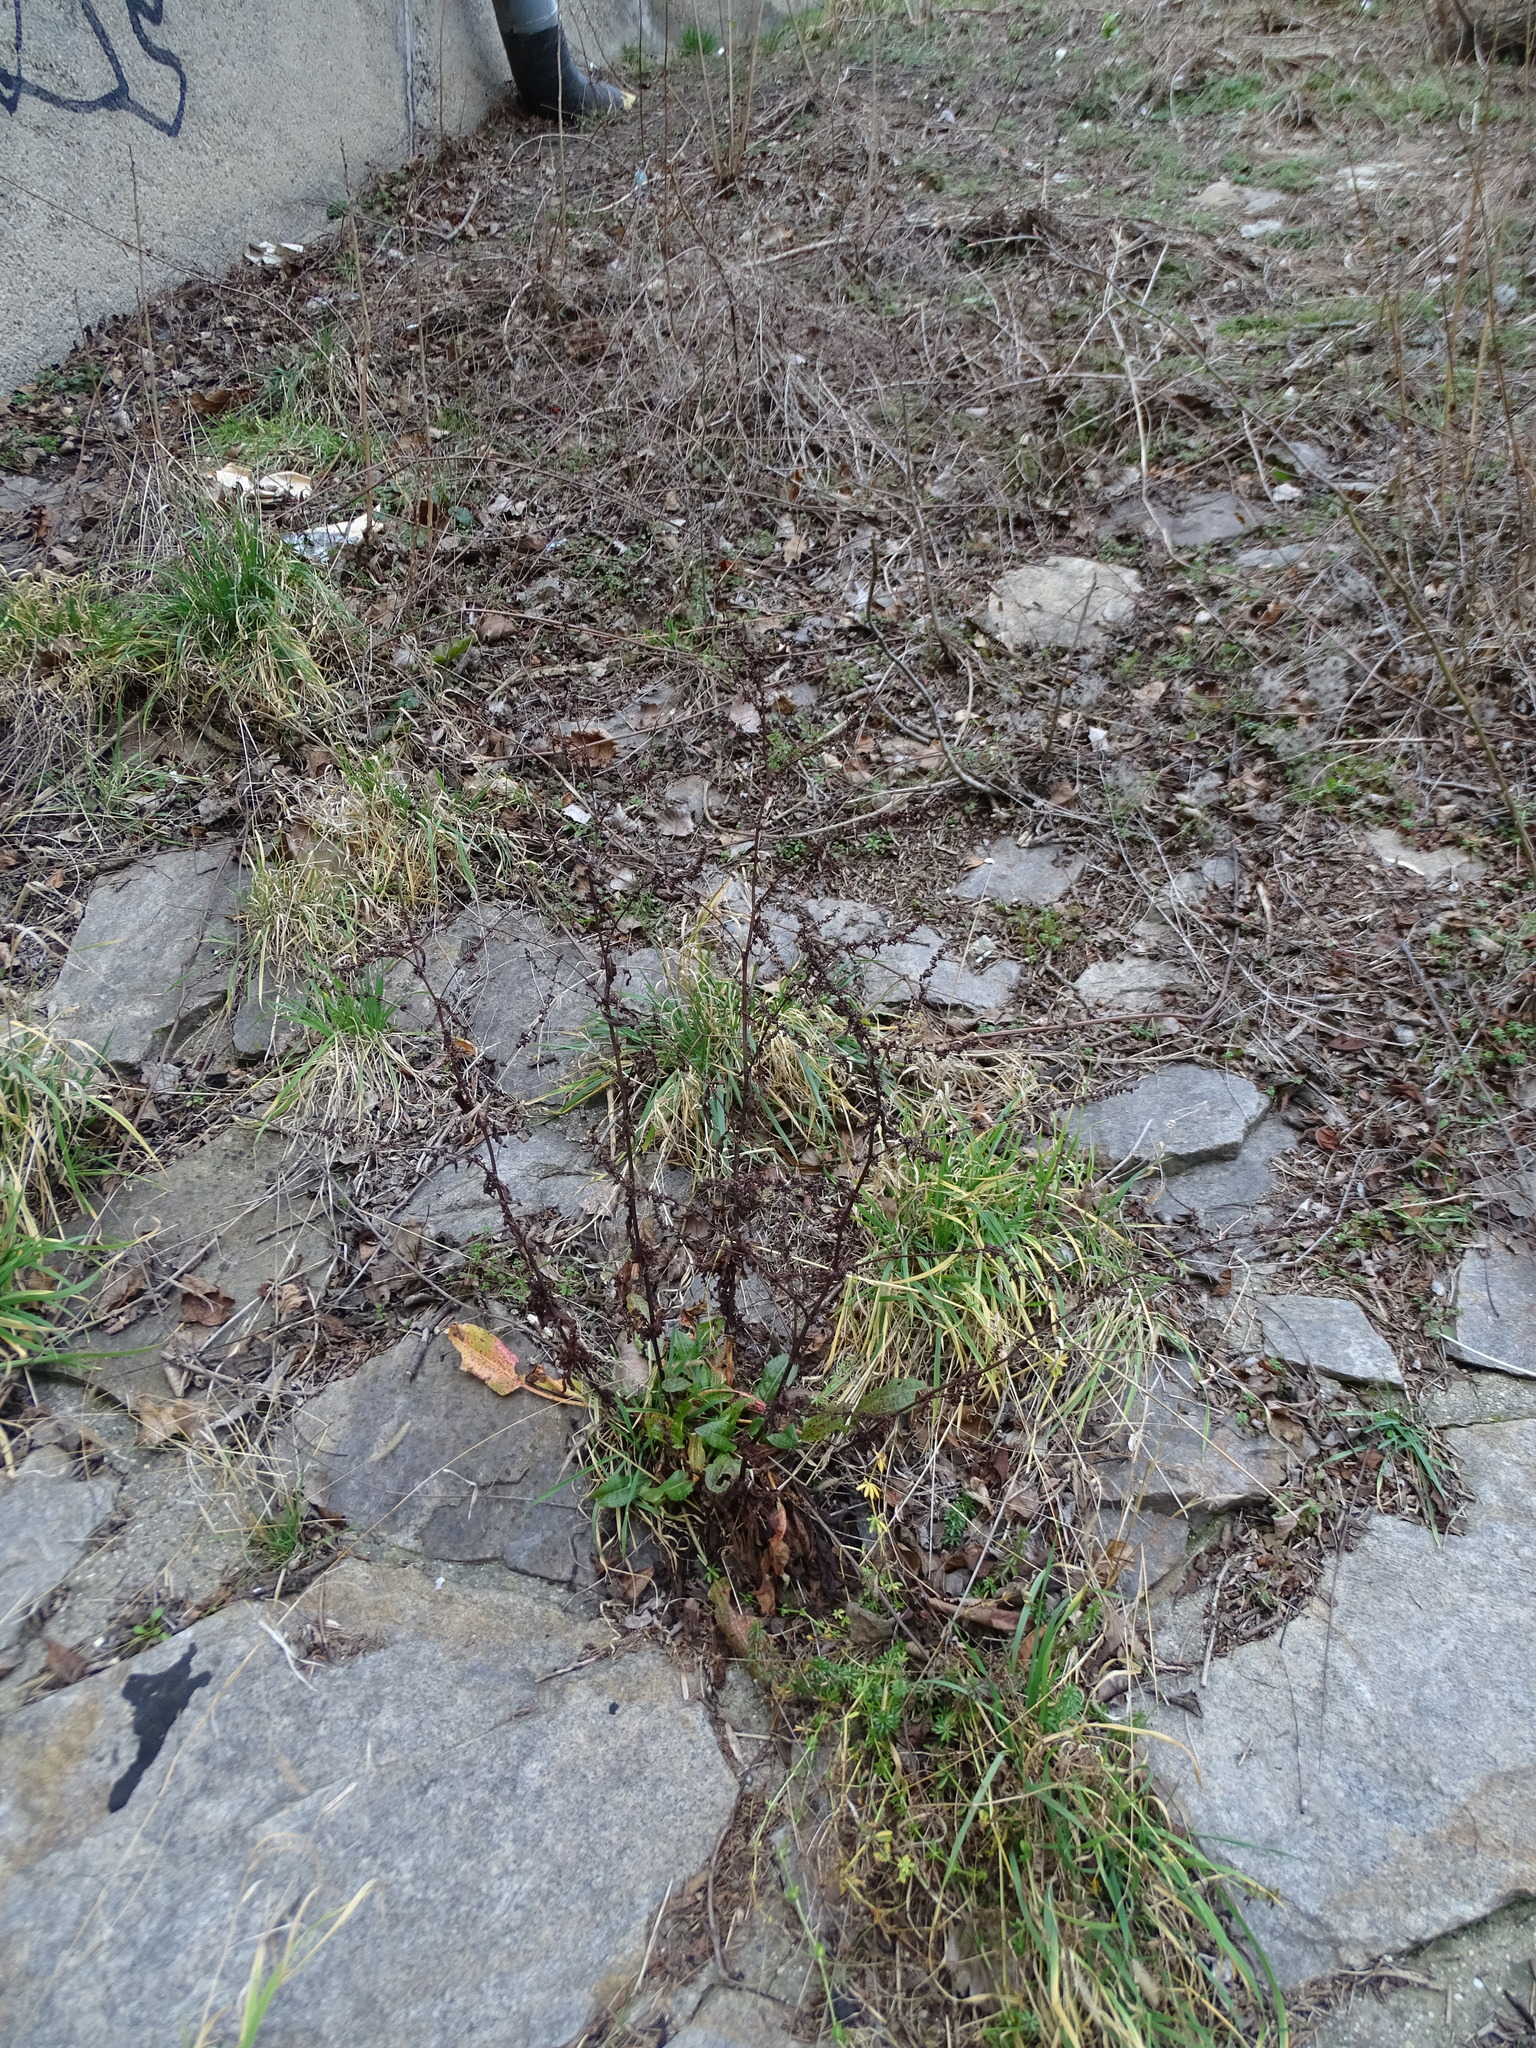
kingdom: Plantae
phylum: Tracheophyta
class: Magnoliopsida
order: Caryophyllales
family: Polygonaceae
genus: Rumex
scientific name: Rumex conglomeratus
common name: Clustered dock
